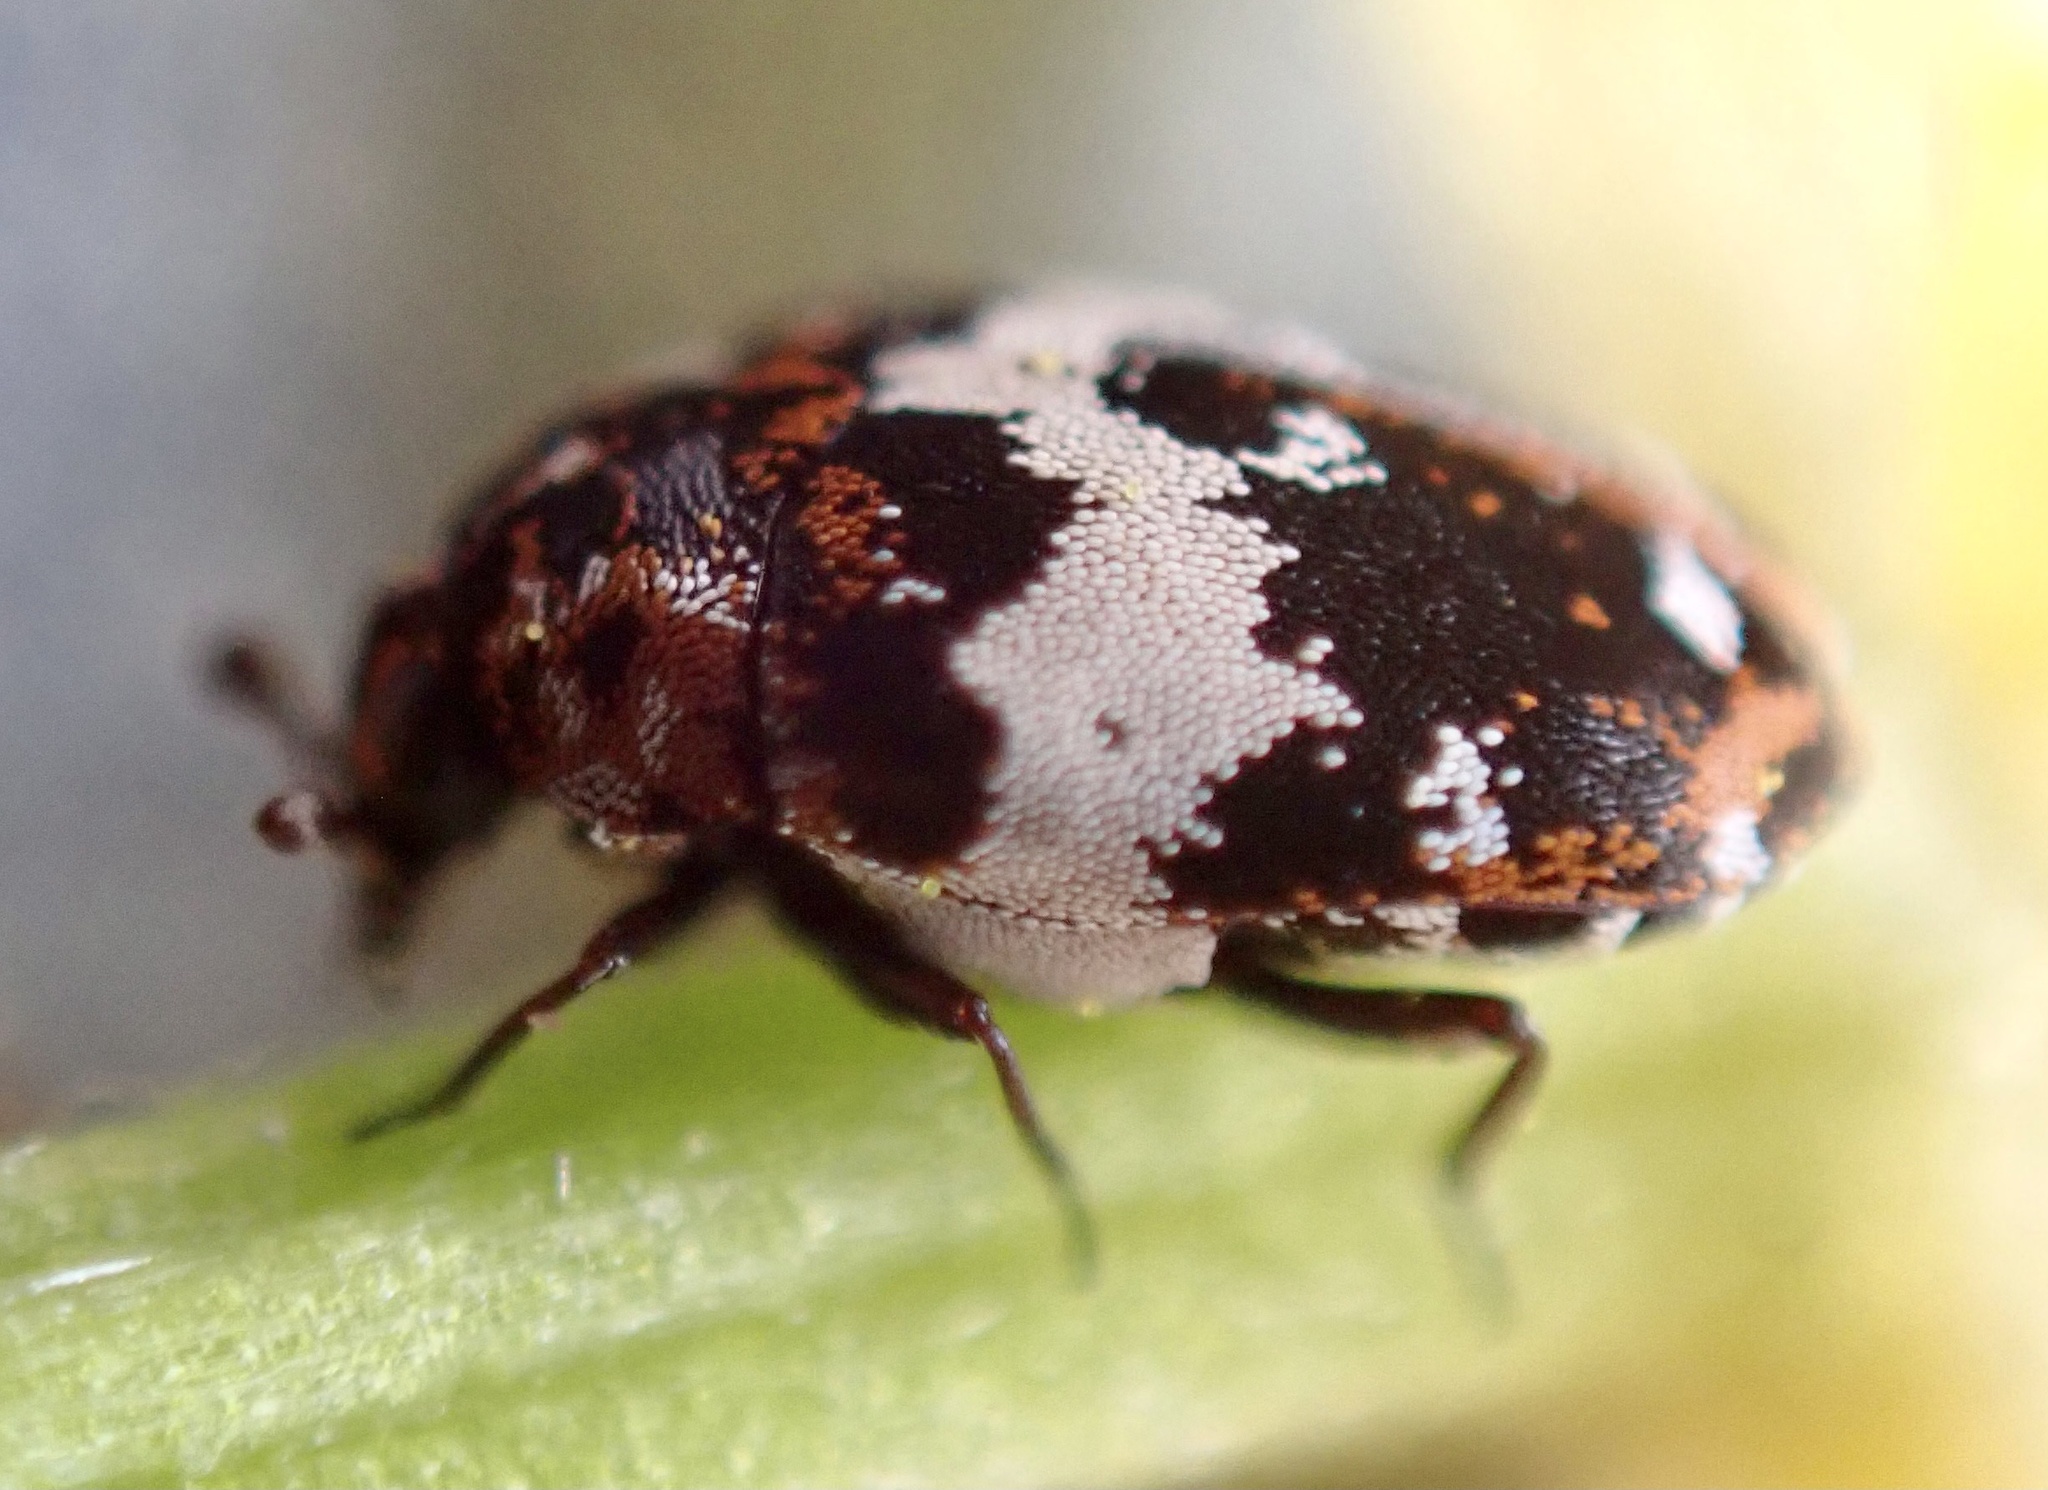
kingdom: Animalia
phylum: Arthropoda
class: Insecta
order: Coleoptera
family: Dermestidae
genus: Anthrenus
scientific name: Anthrenus pimpinellae
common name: Dermestid beetle
